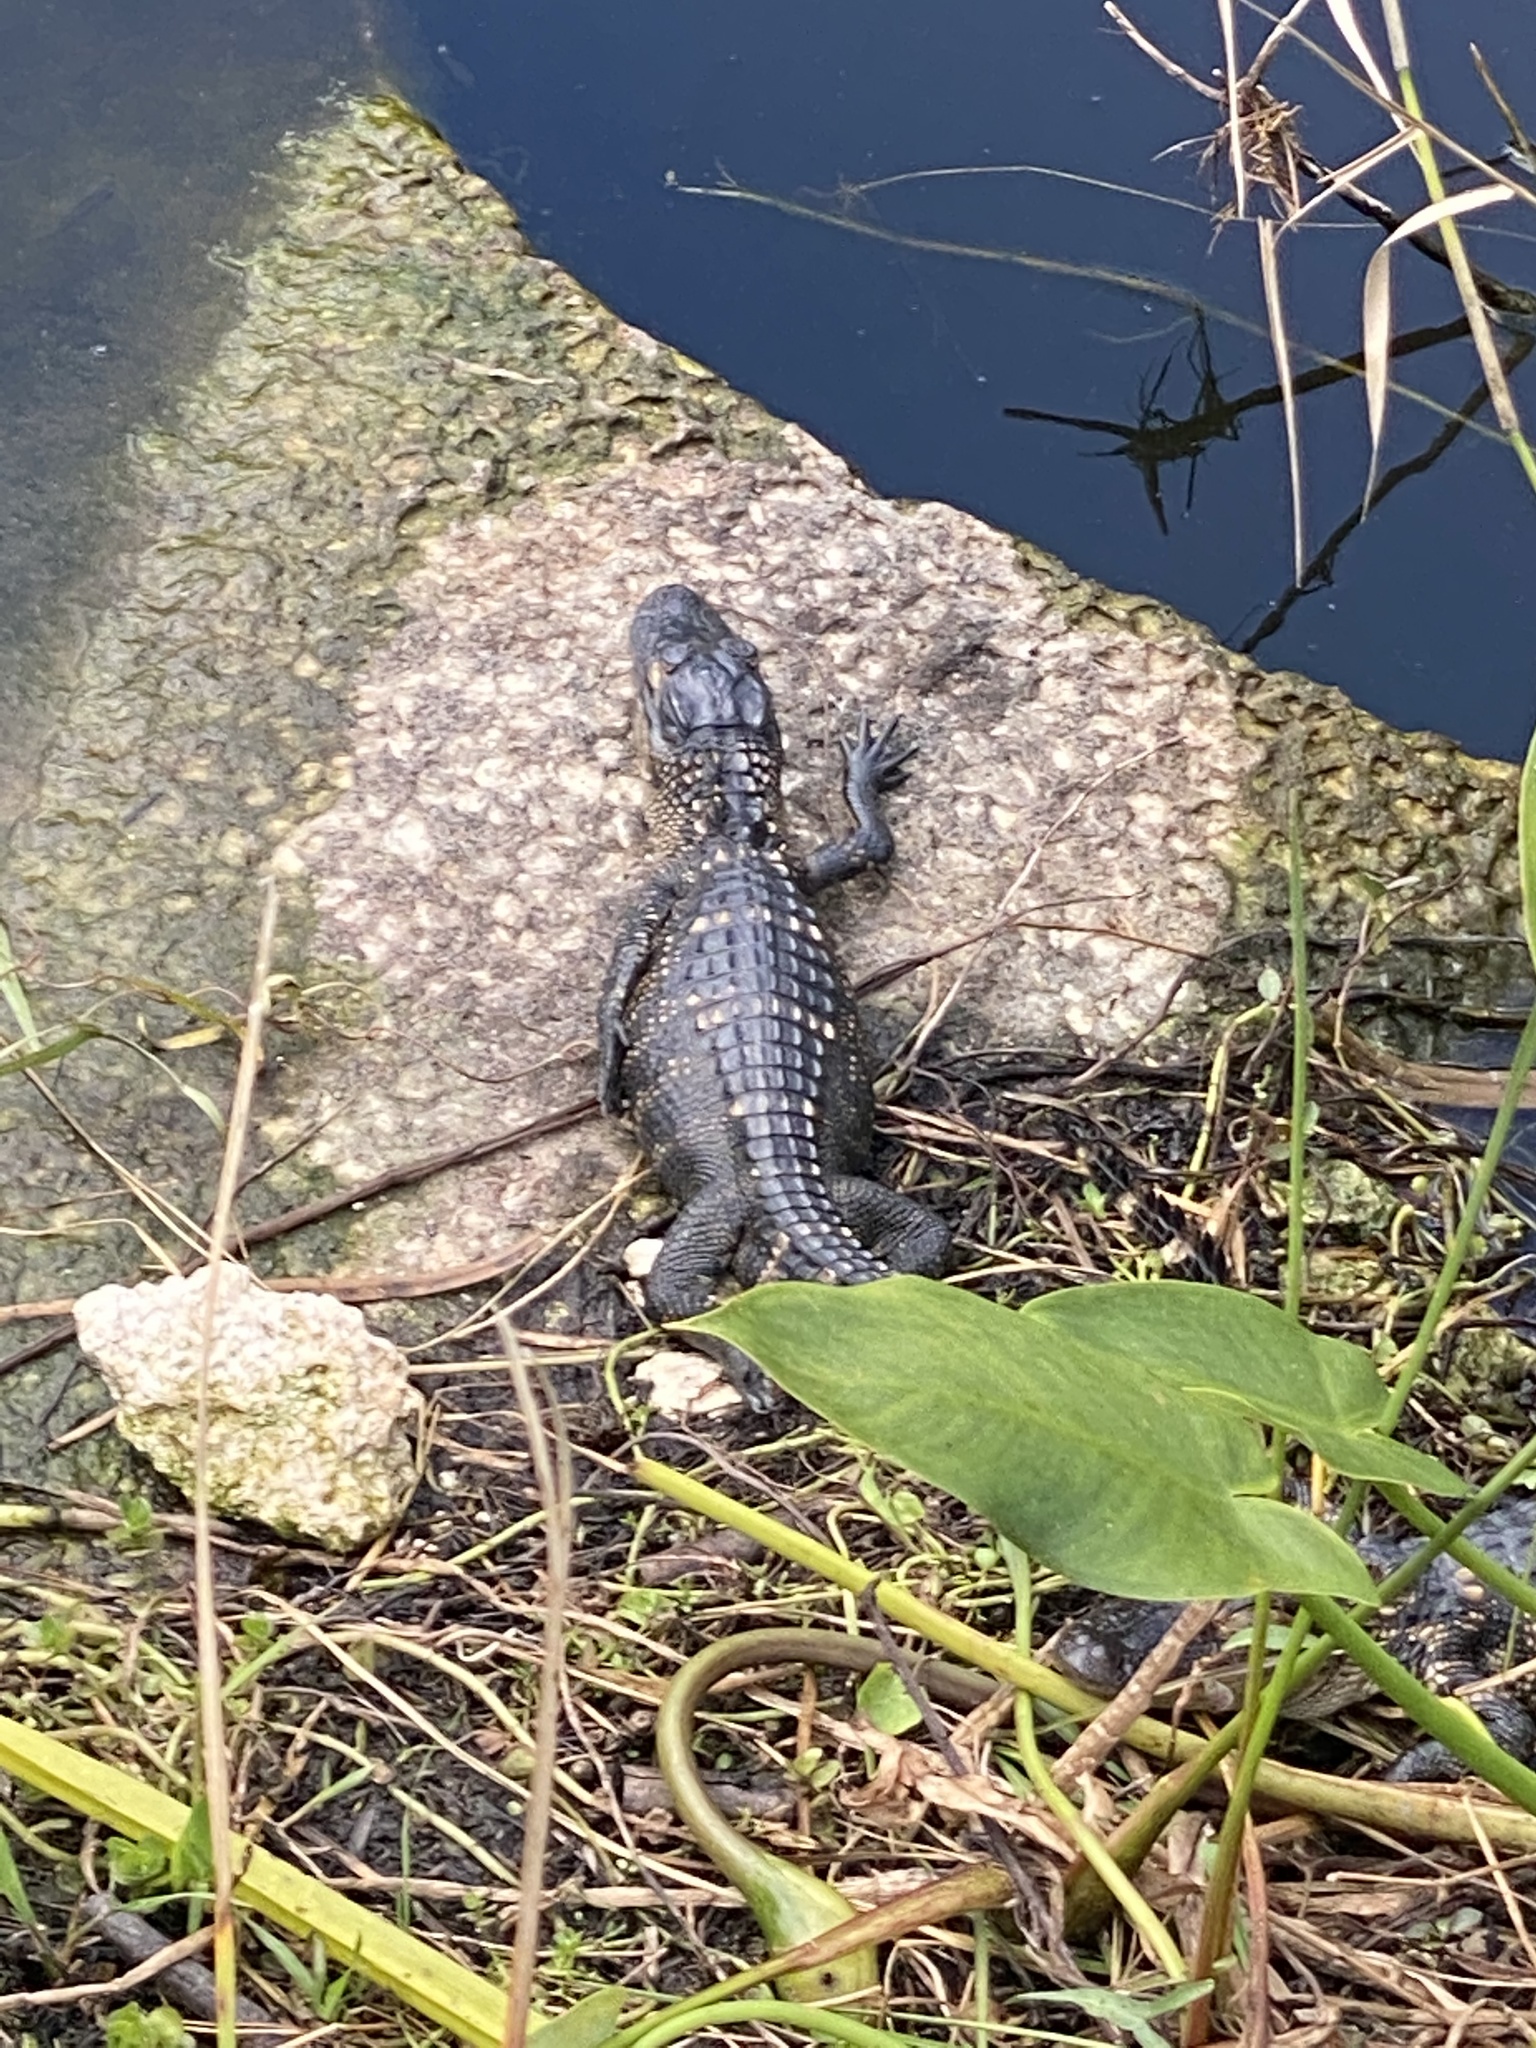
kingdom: Animalia
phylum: Chordata
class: Crocodylia
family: Alligatoridae
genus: Alligator
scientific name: Alligator mississippiensis
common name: American alligator
